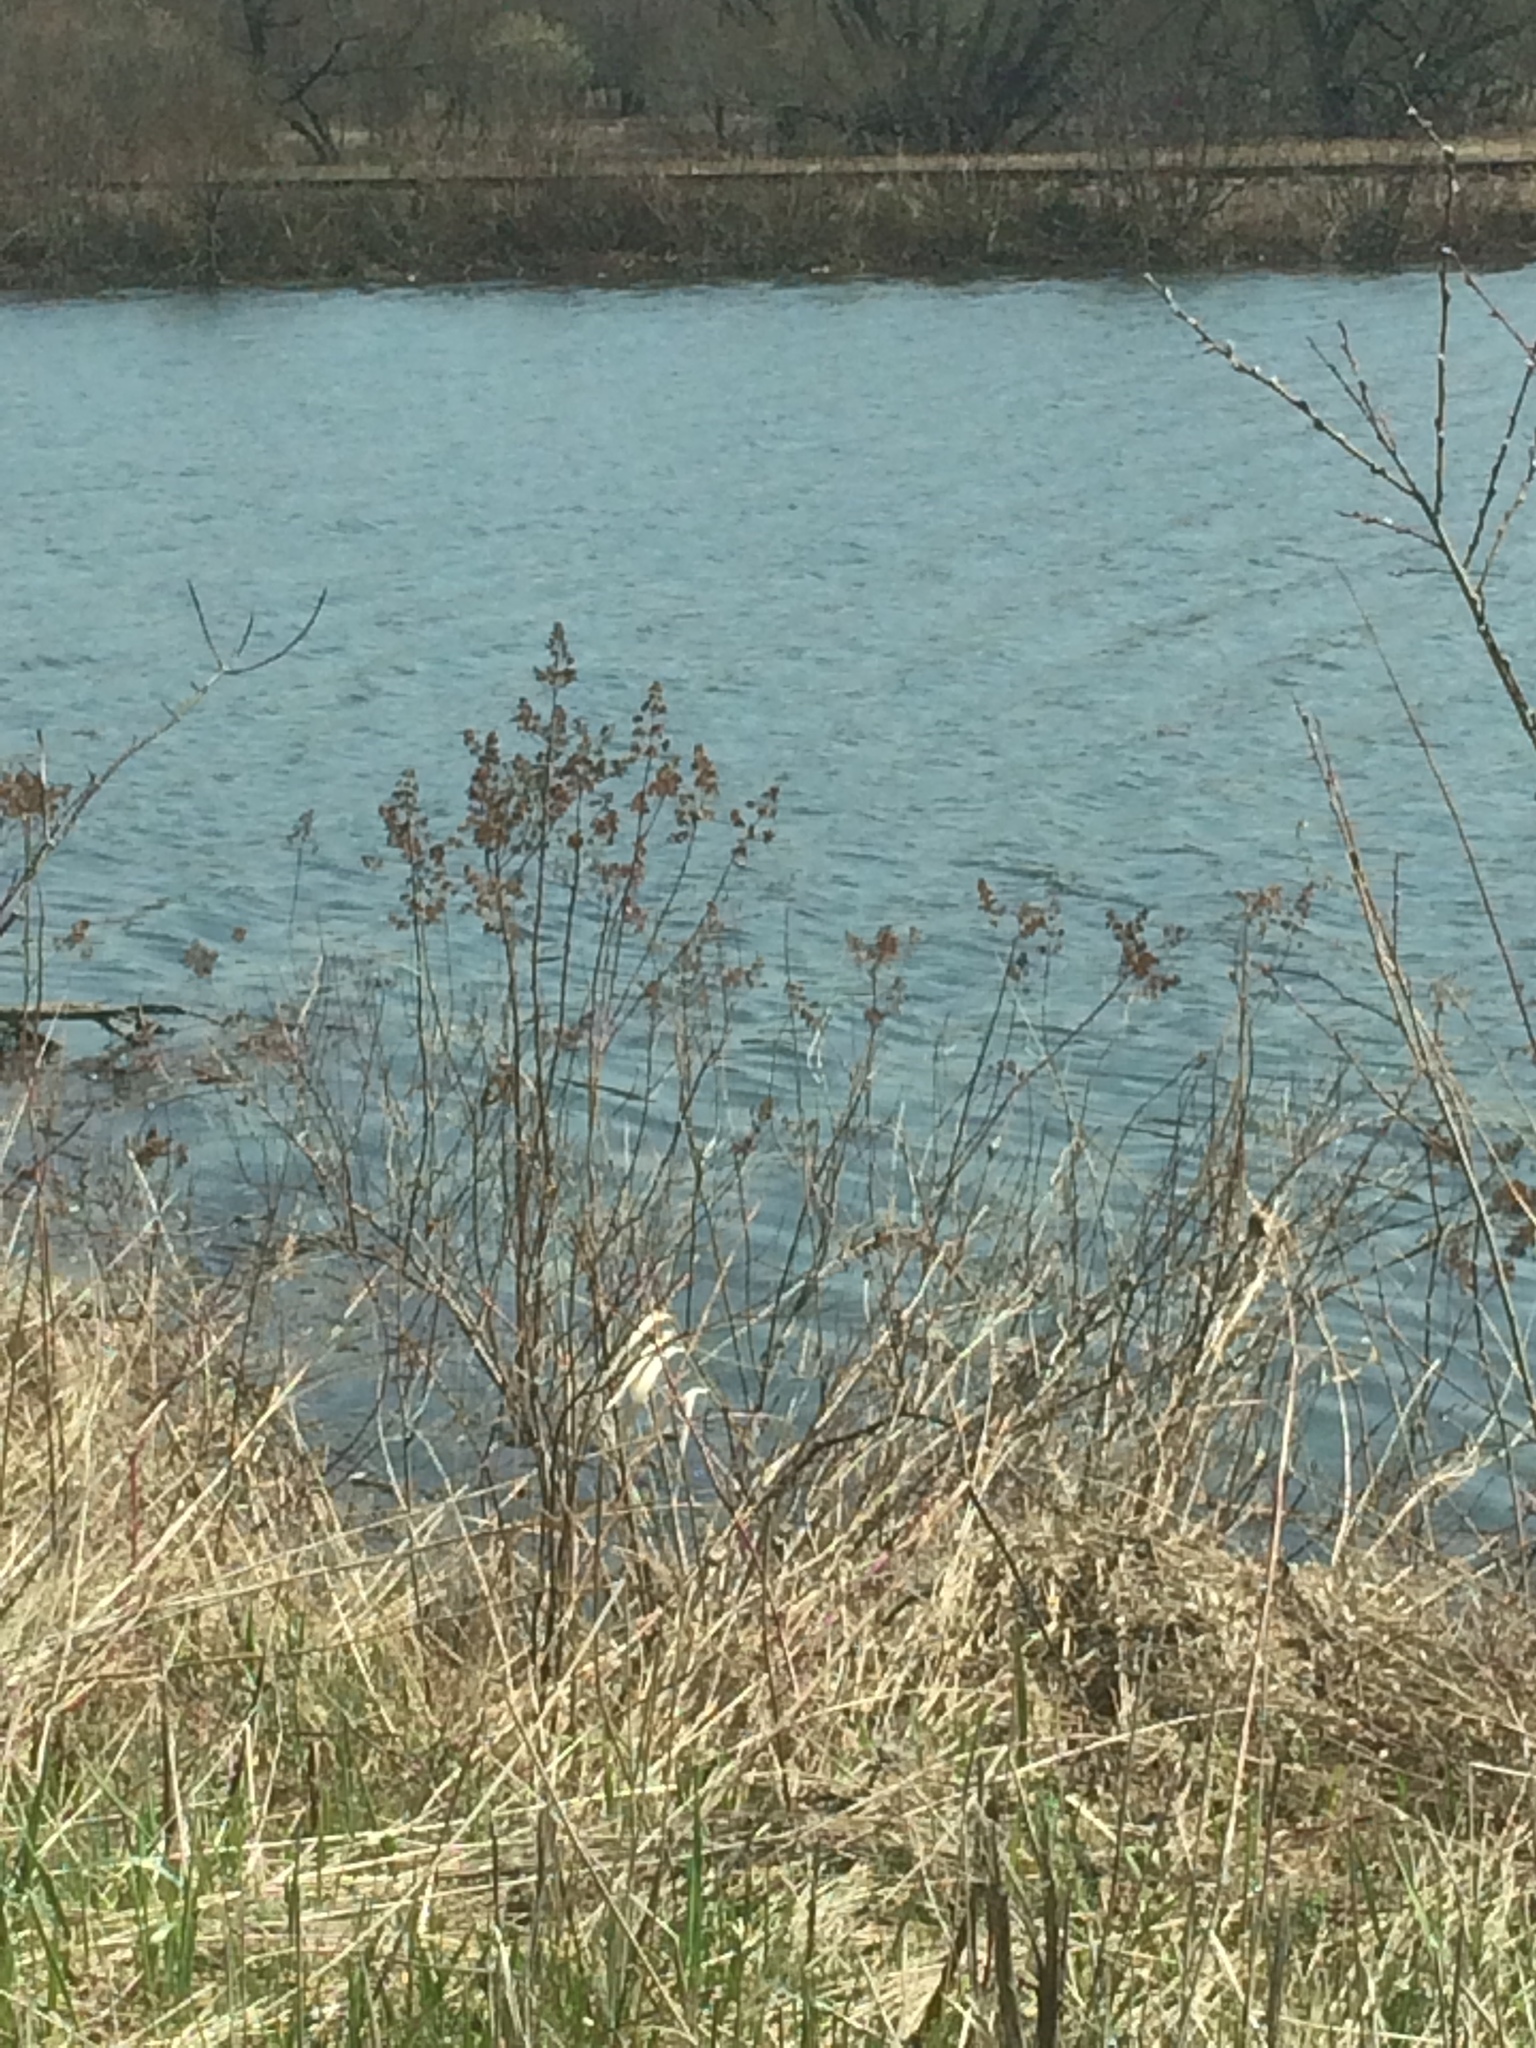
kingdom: Plantae
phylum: Tracheophyta
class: Magnoliopsida
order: Rosales
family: Rosaceae
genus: Spiraea
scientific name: Spiraea alba
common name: Pale bridewort
